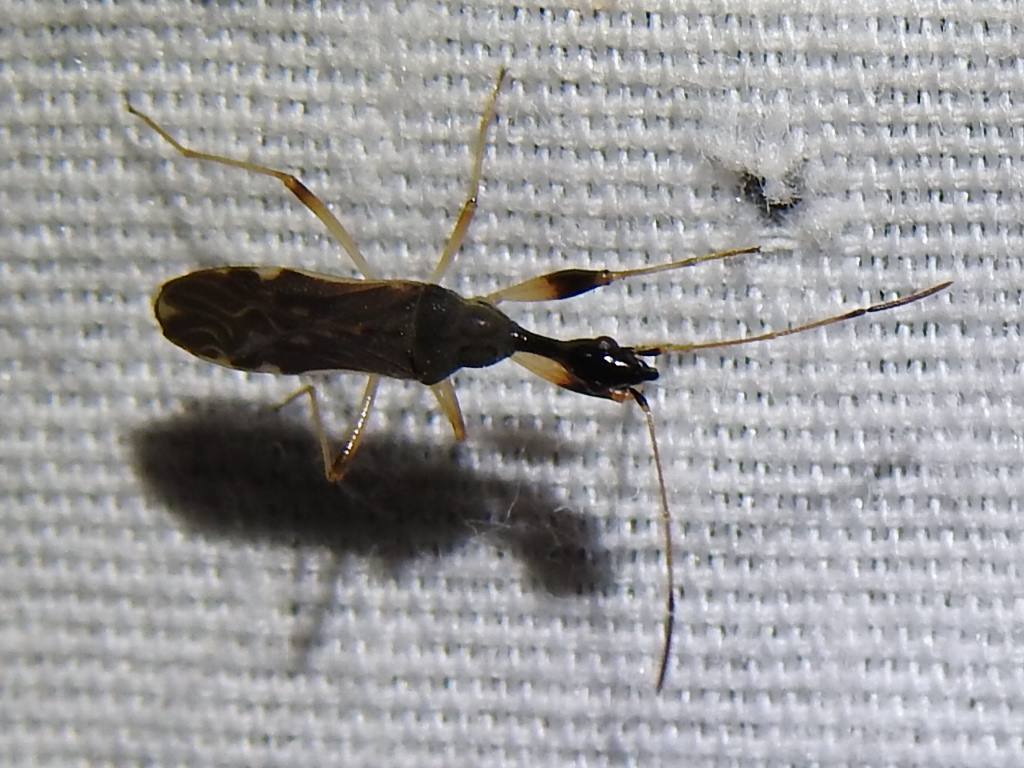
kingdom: Animalia
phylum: Arthropoda
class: Insecta
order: Hemiptera
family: Rhyparochromidae
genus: Myodocha
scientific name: Myodocha serripes
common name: Long-necked seed bug
